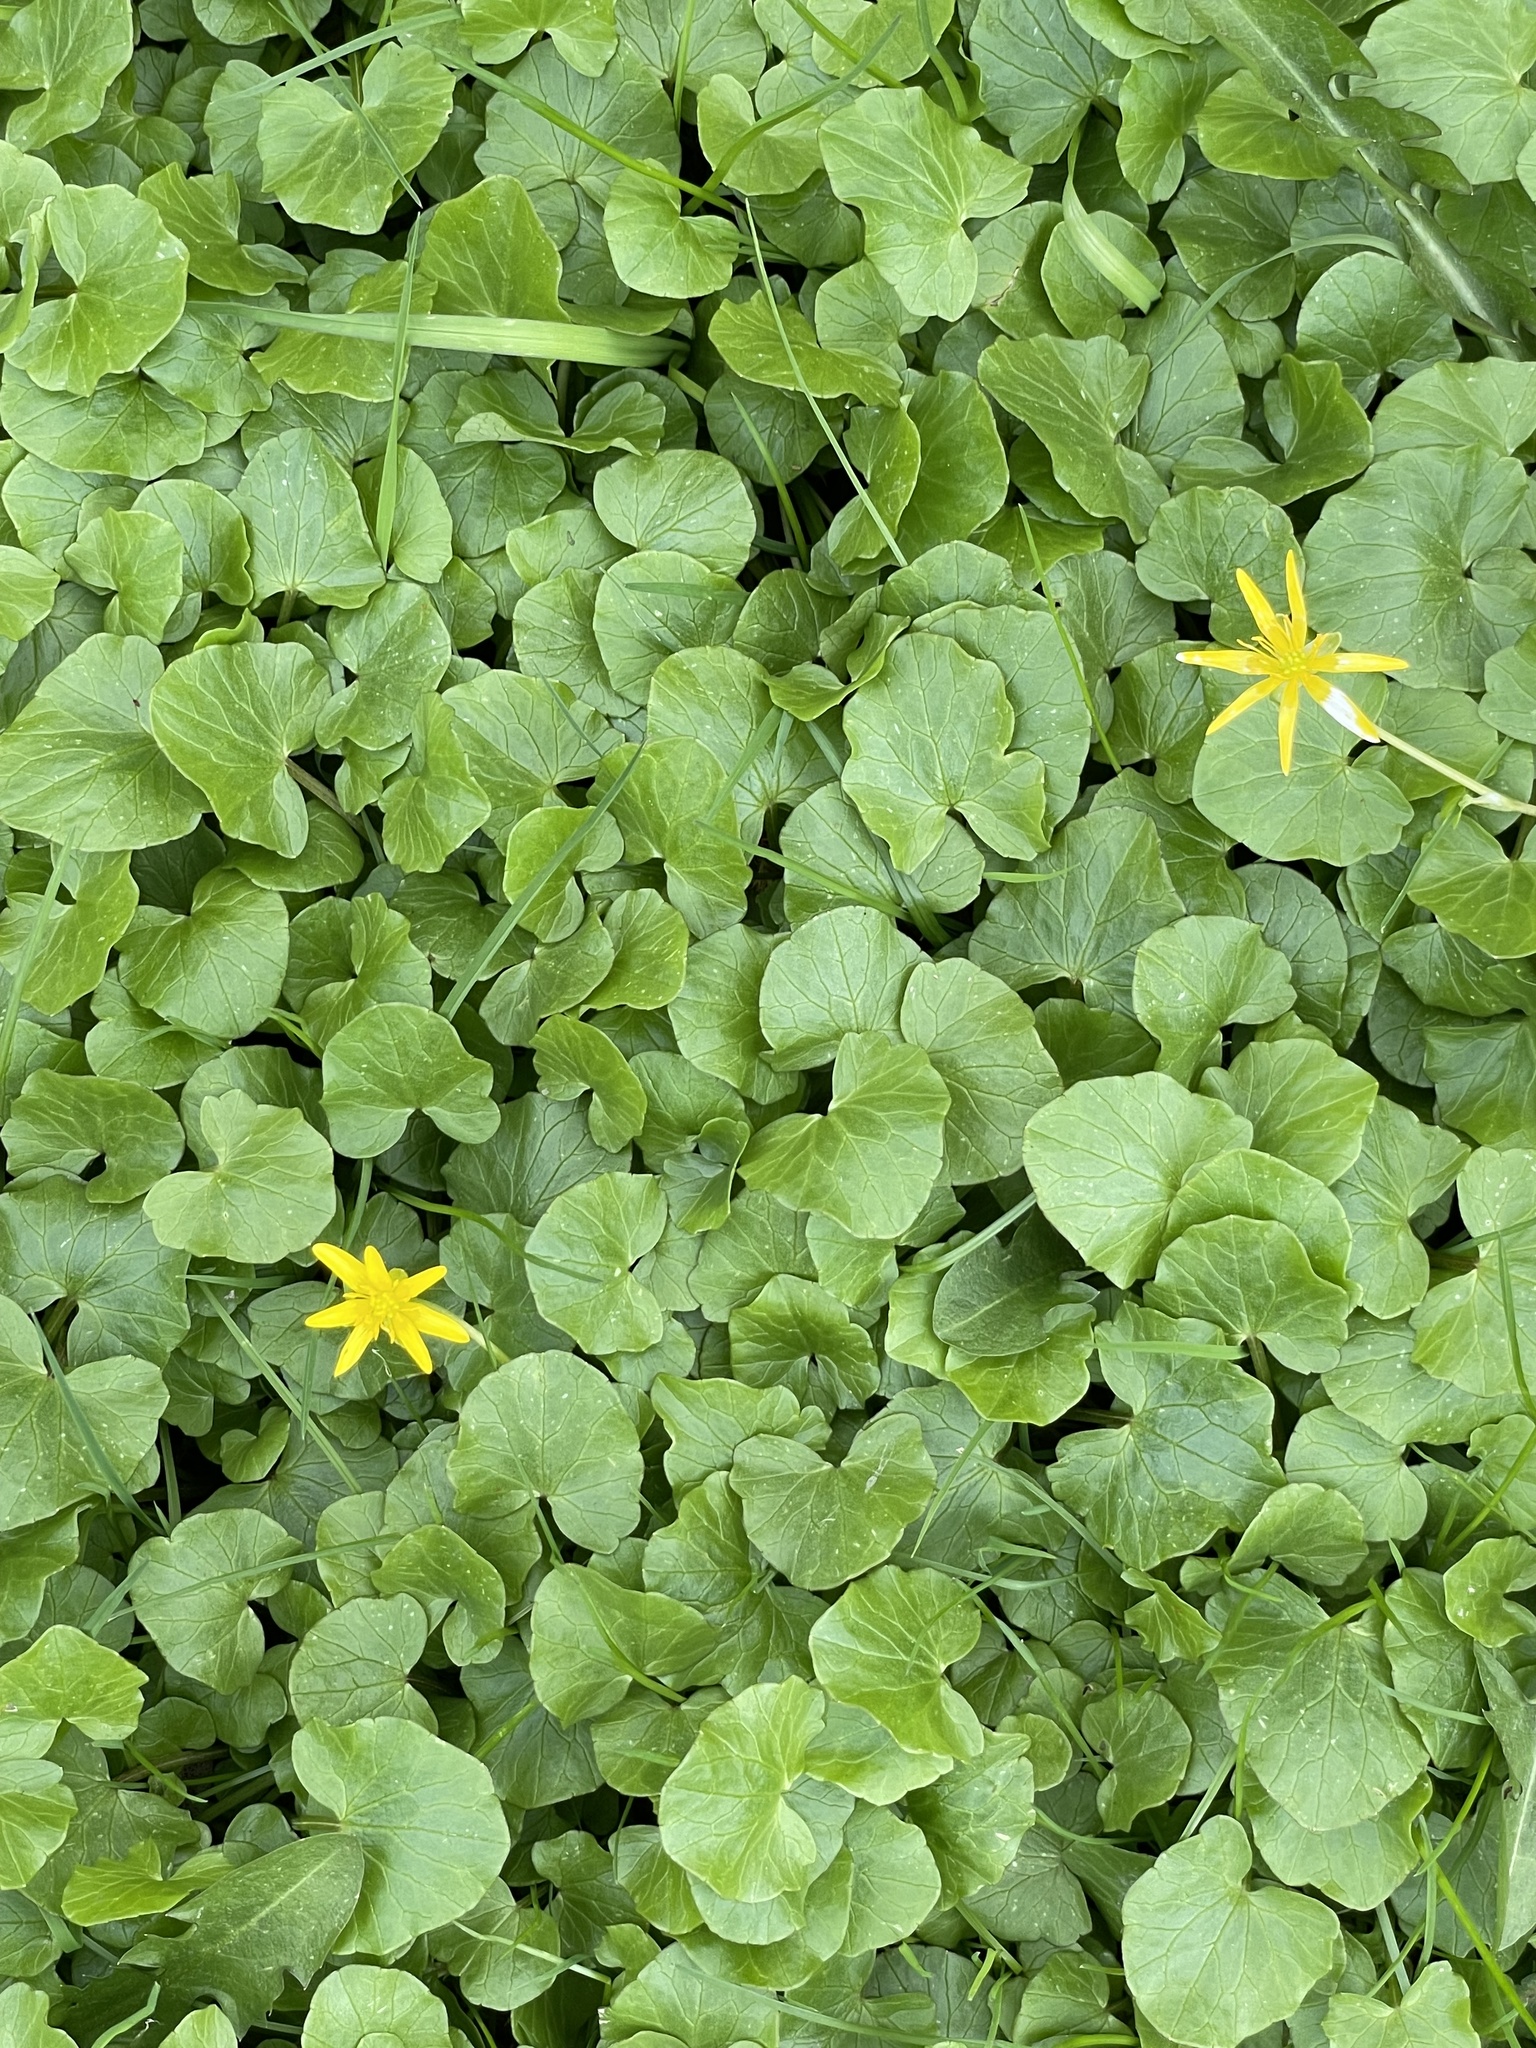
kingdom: Plantae
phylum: Tracheophyta
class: Magnoliopsida
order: Ranunculales
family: Ranunculaceae
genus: Ficaria
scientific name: Ficaria verna
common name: Lesser celandine
